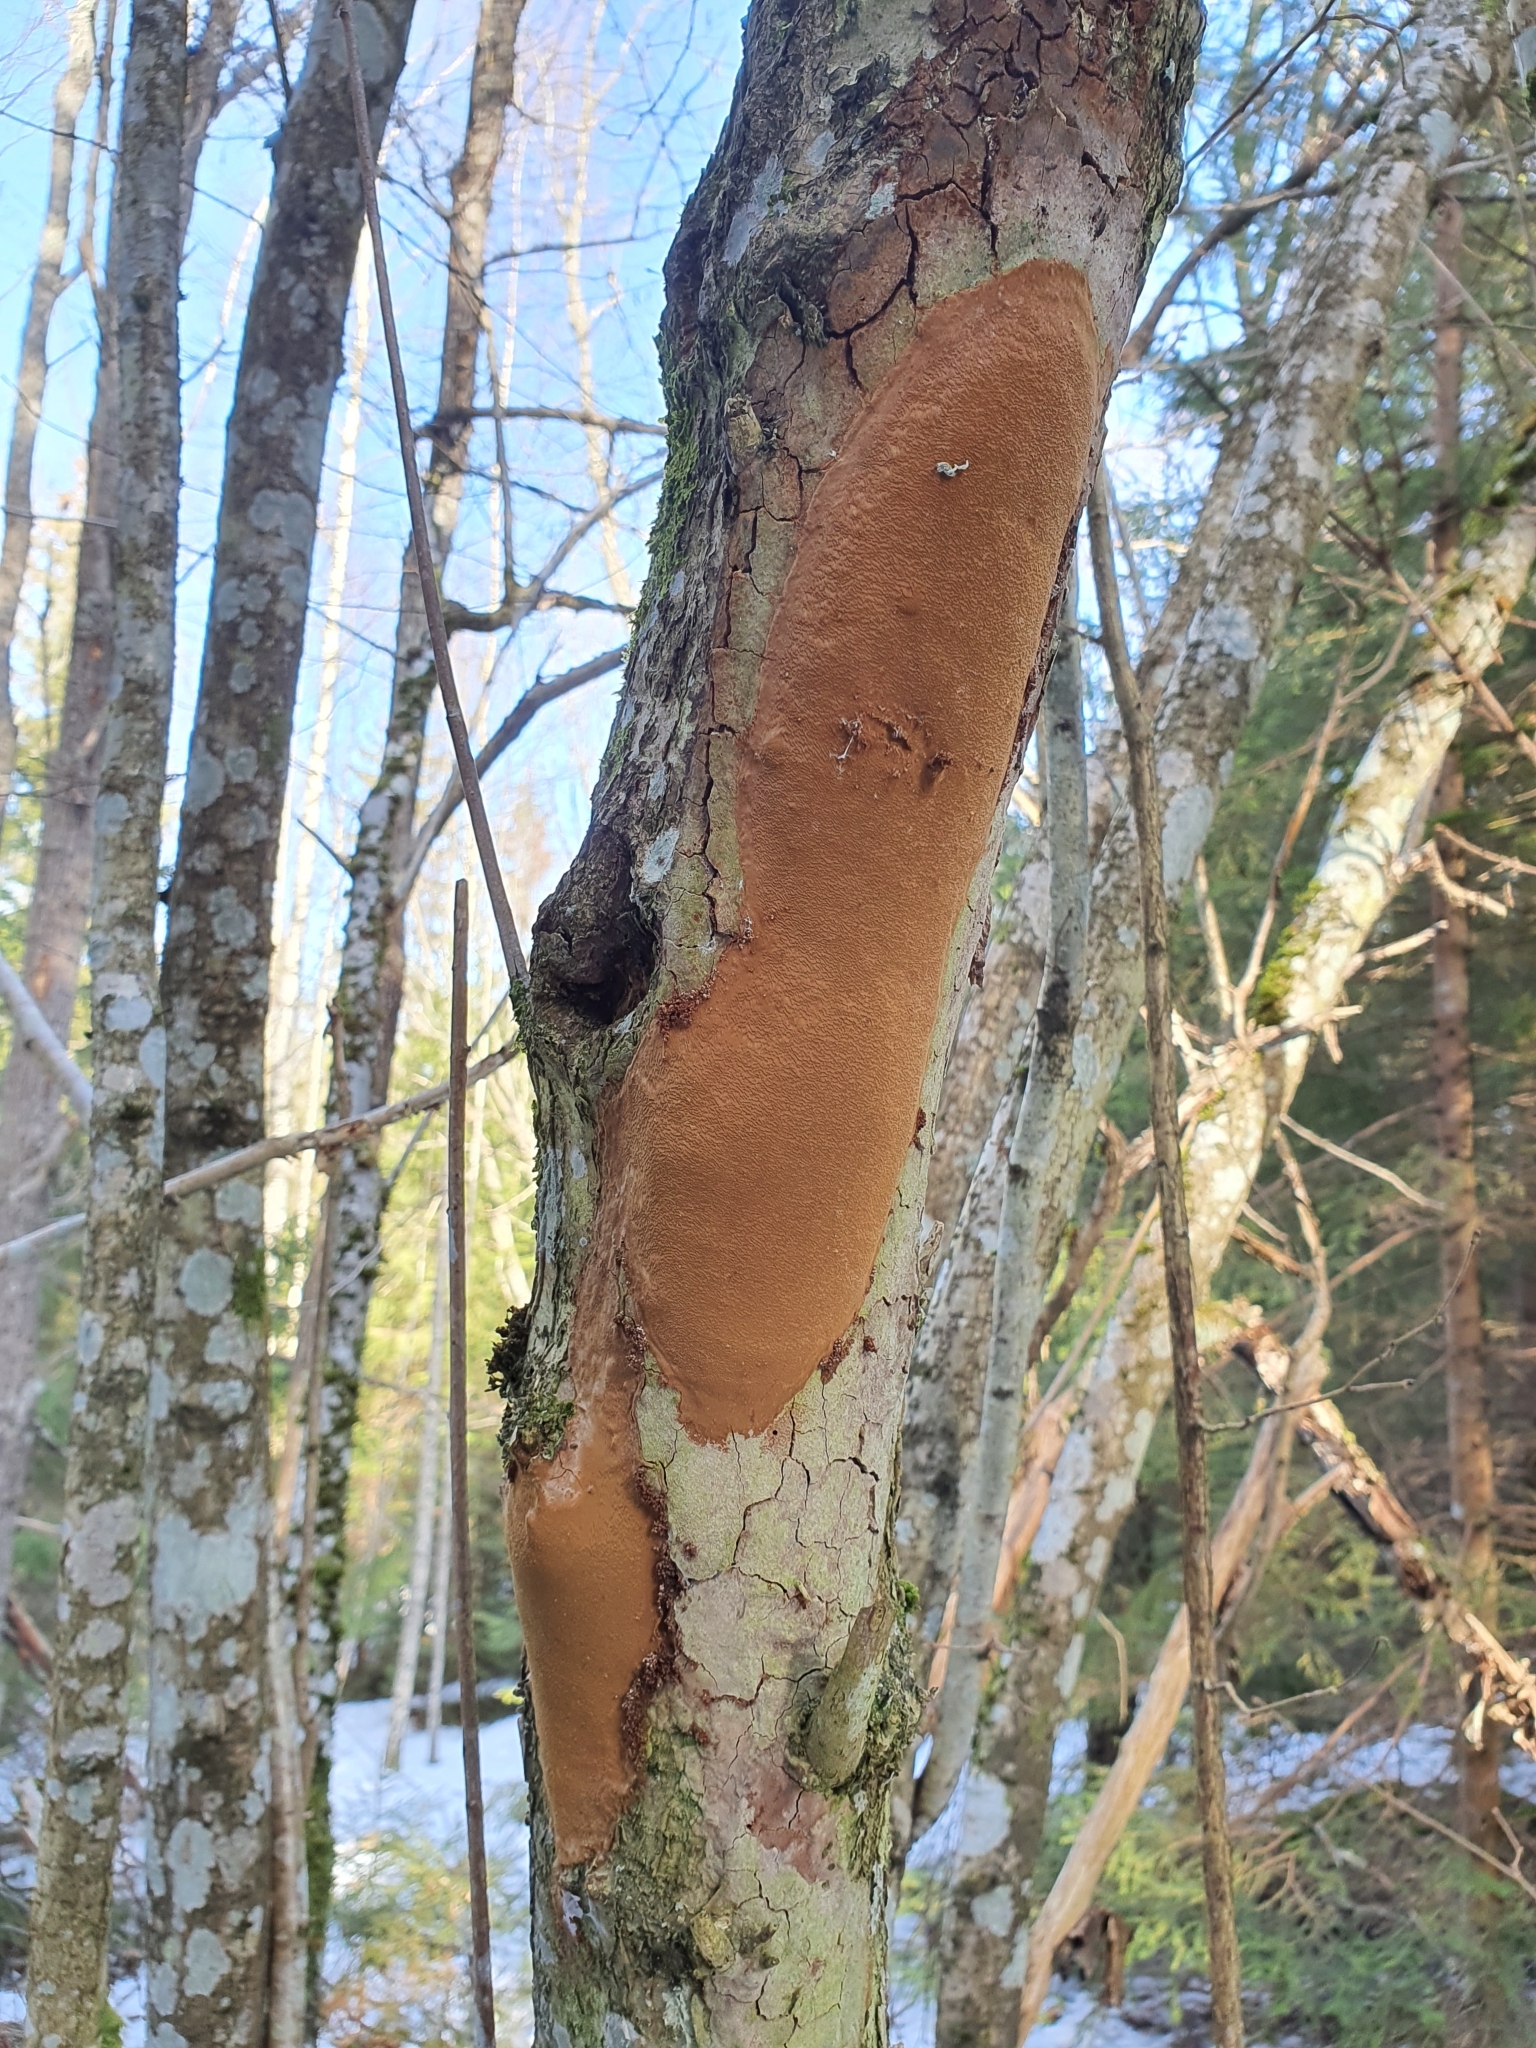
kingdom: Fungi
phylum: Basidiomycota
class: Agaricomycetes
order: Hymenochaetales
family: Hymenochaetaceae
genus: Fomitiporia
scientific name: Fomitiporia punctata
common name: Elbowpatch crust
